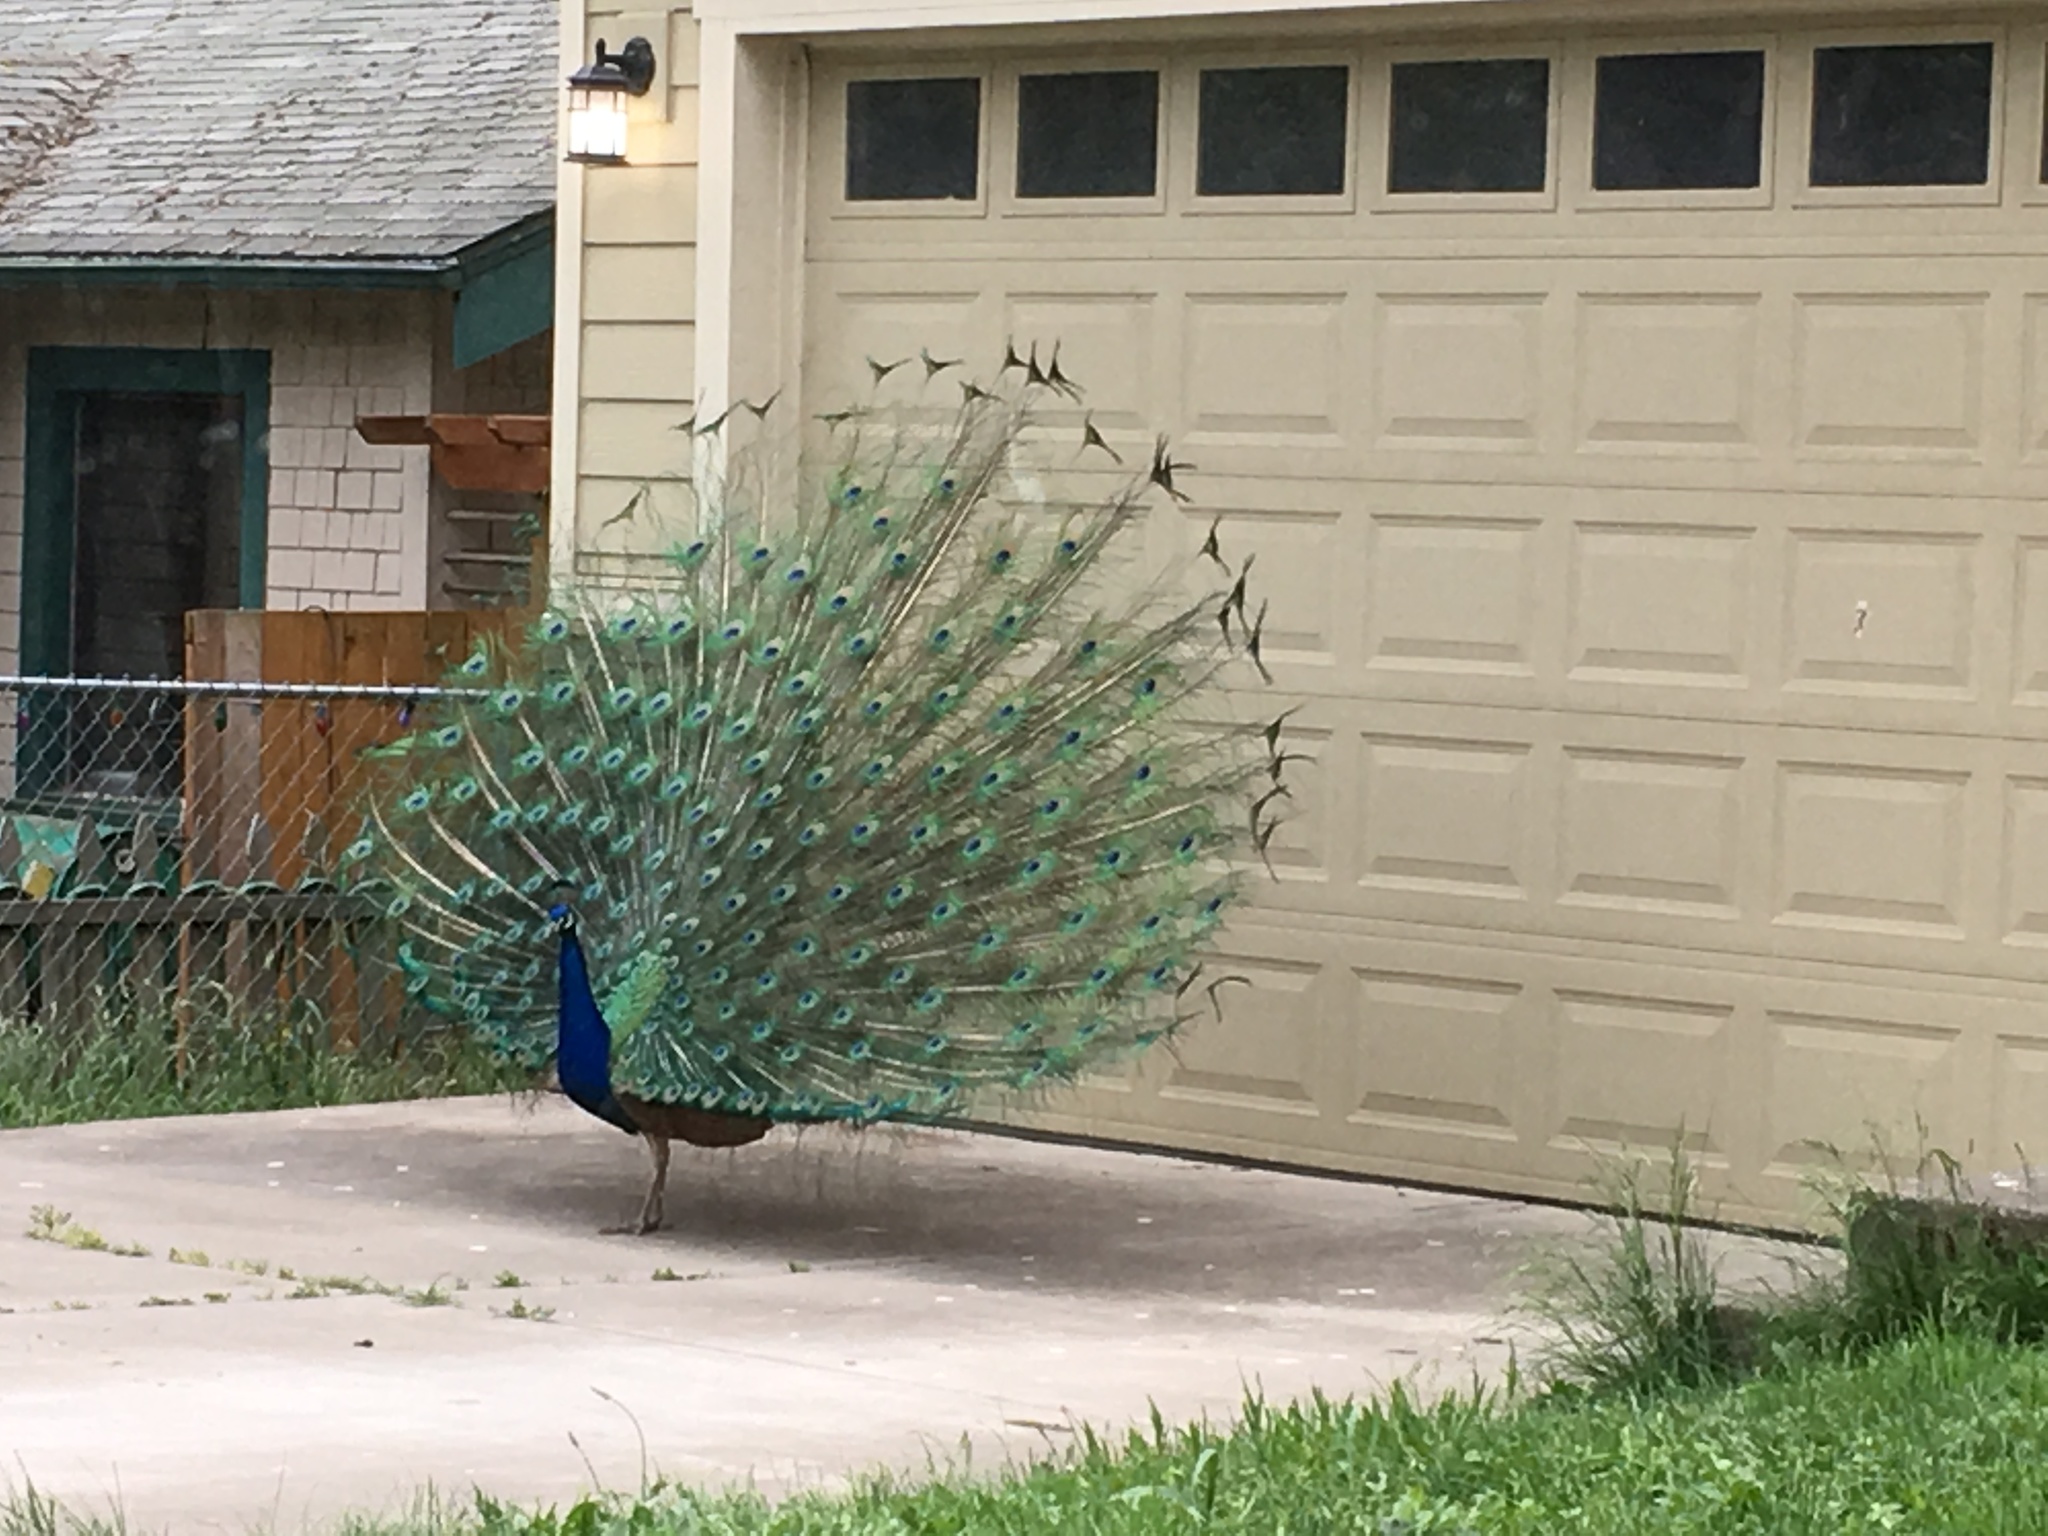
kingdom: Animalia
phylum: Chordata
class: Aves
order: Galliformes
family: Phasianidae
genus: Pavo
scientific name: Pavo cristatus
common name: Indian peafowl
